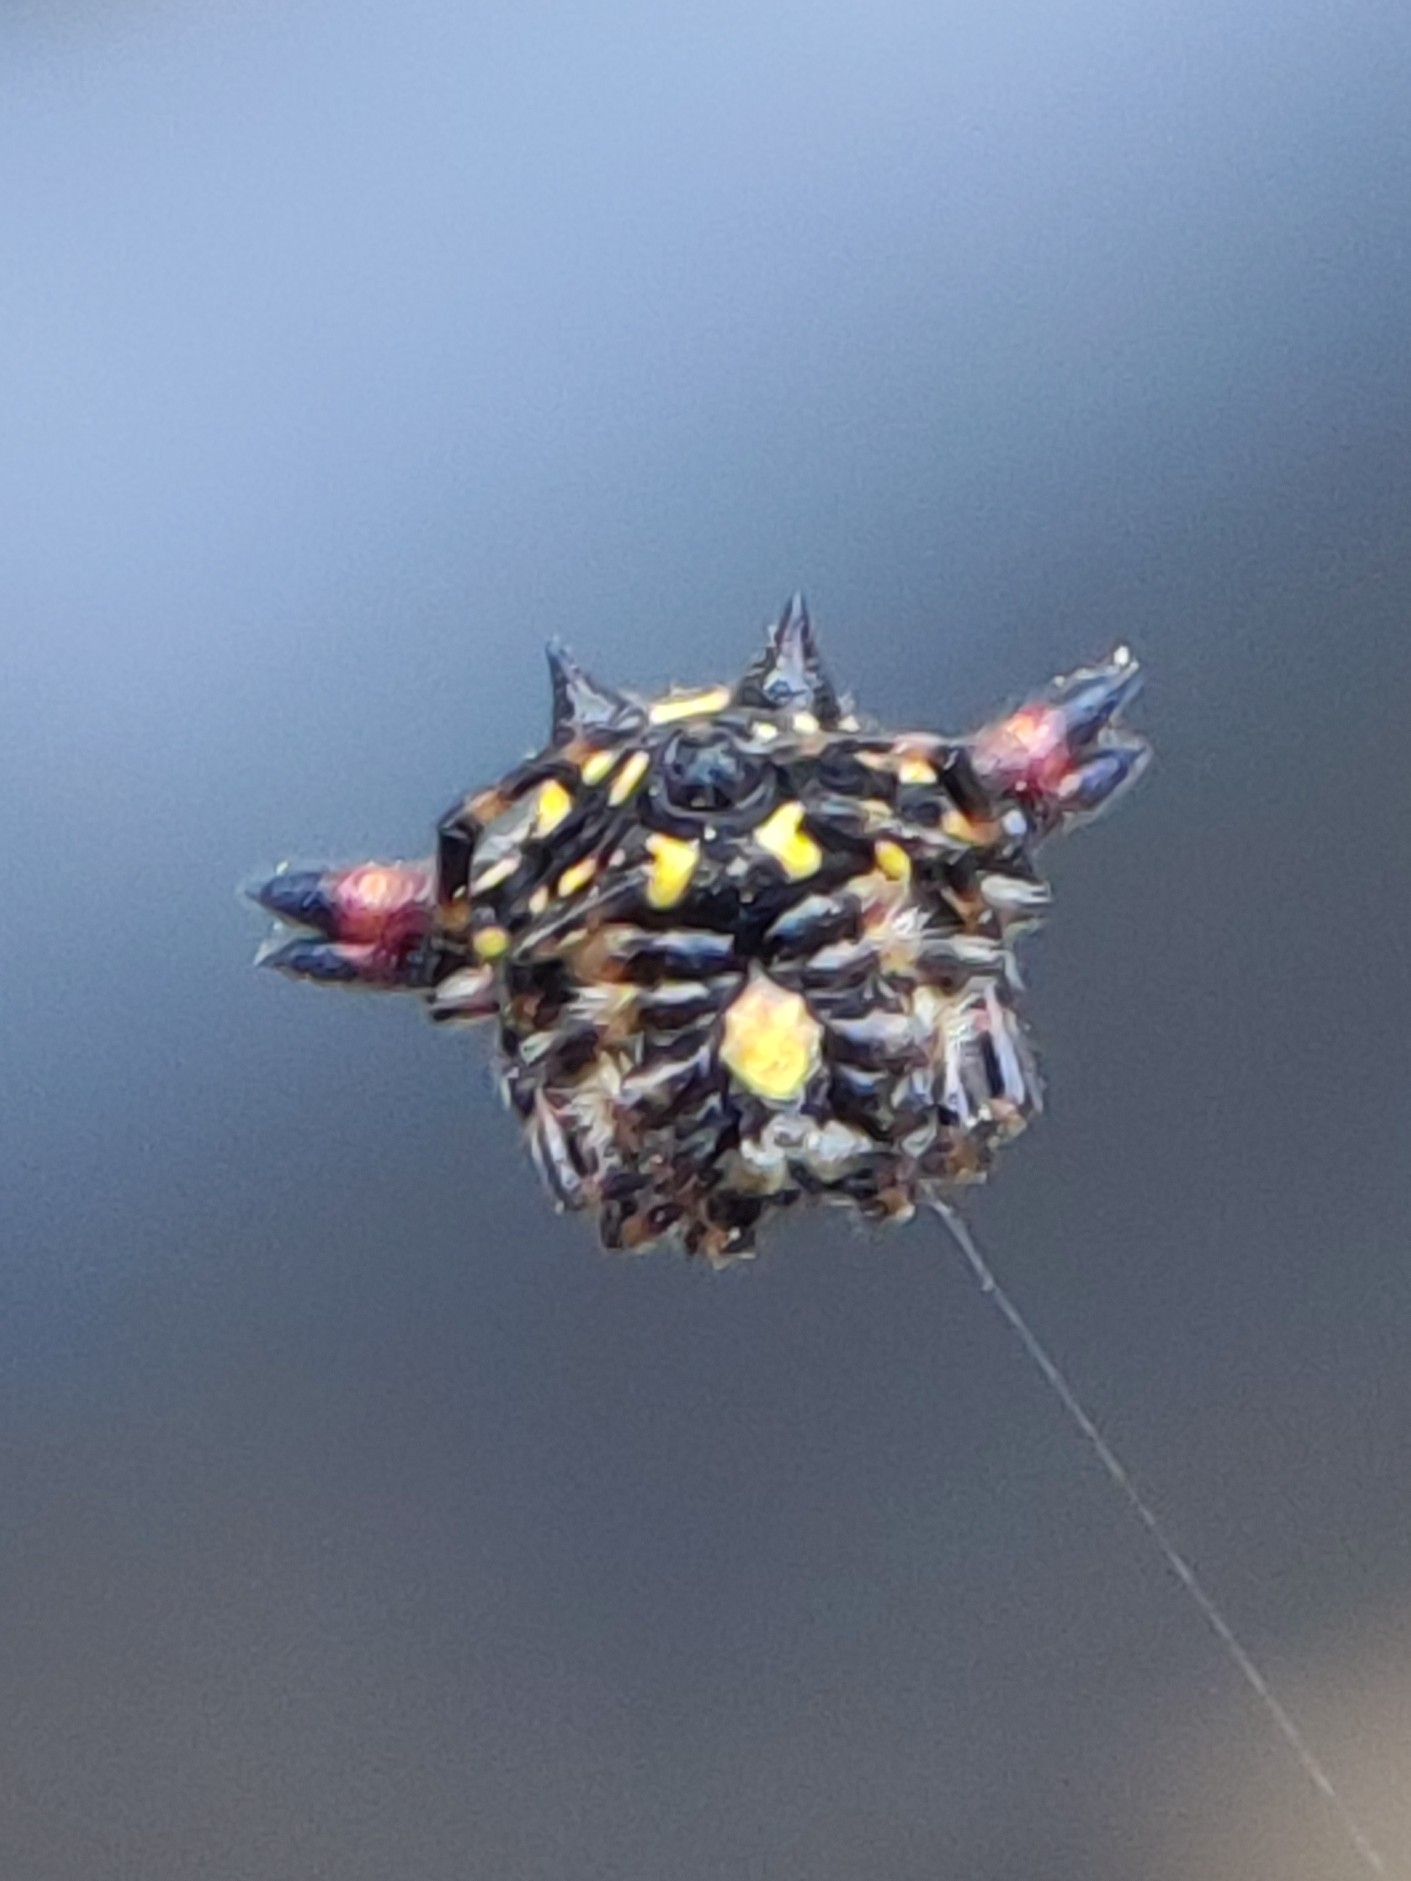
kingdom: Animalia
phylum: Arthropoda
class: Arachnida
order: Araneae
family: Araneidae
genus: Gasteracantha
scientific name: Gasteracantha geminata
